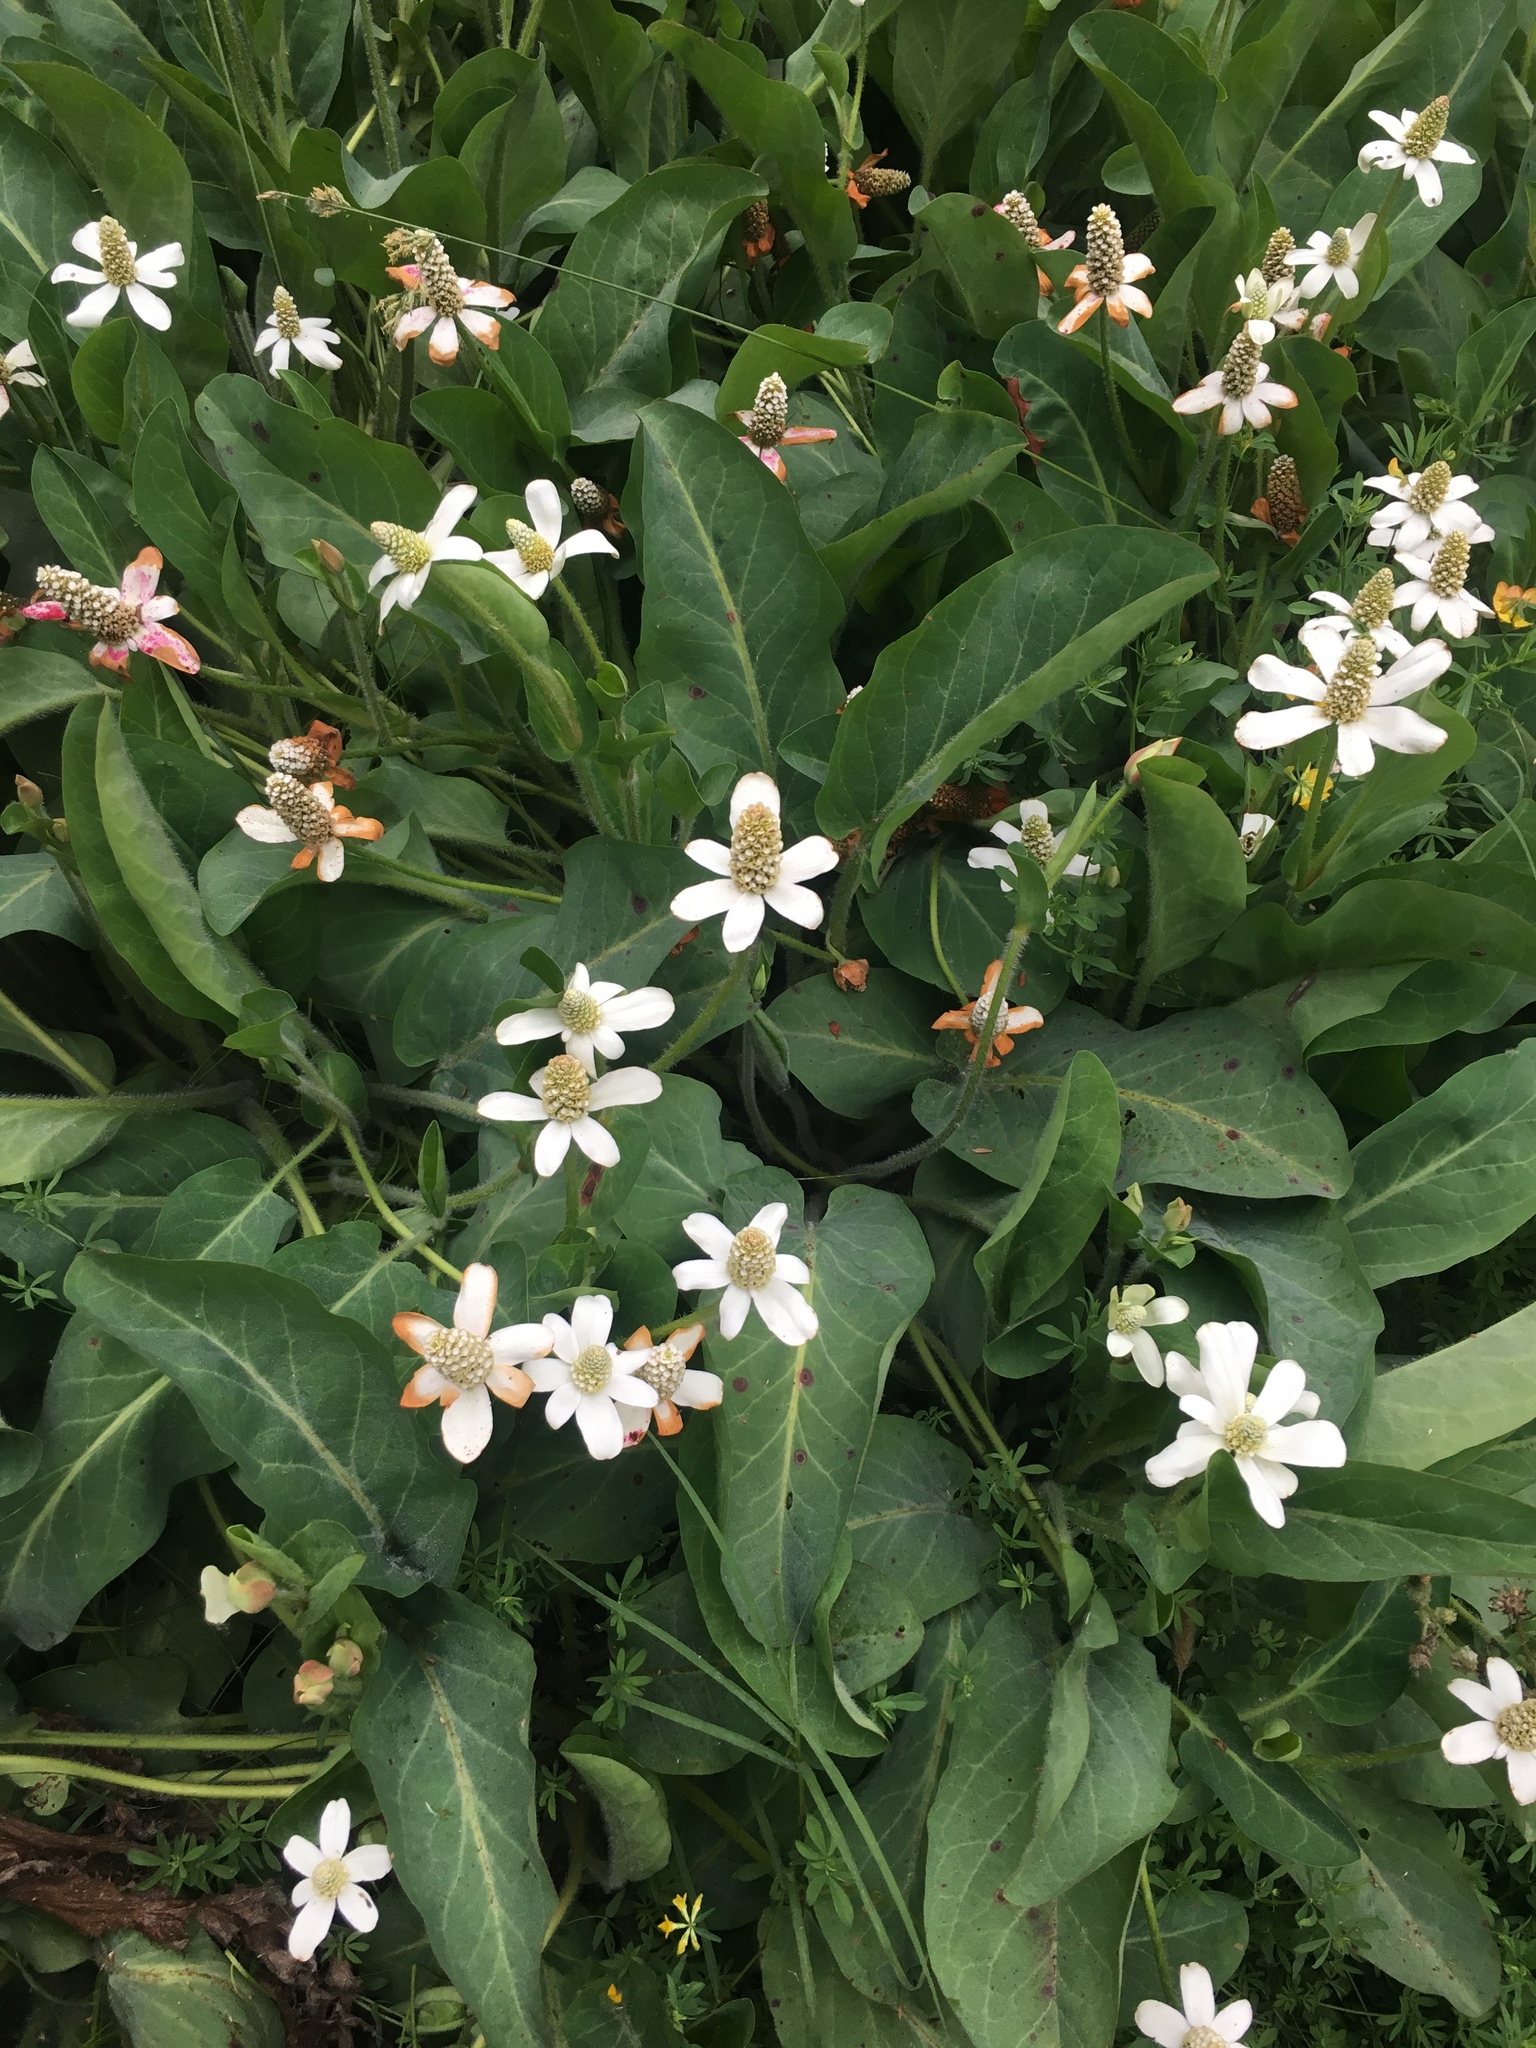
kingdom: Plantae
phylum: Tracheophyta
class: Magnoliopsida
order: Piperales
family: Saururaceae
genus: Anemopsis
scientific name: Anemopsis californica
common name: Apache-beads
